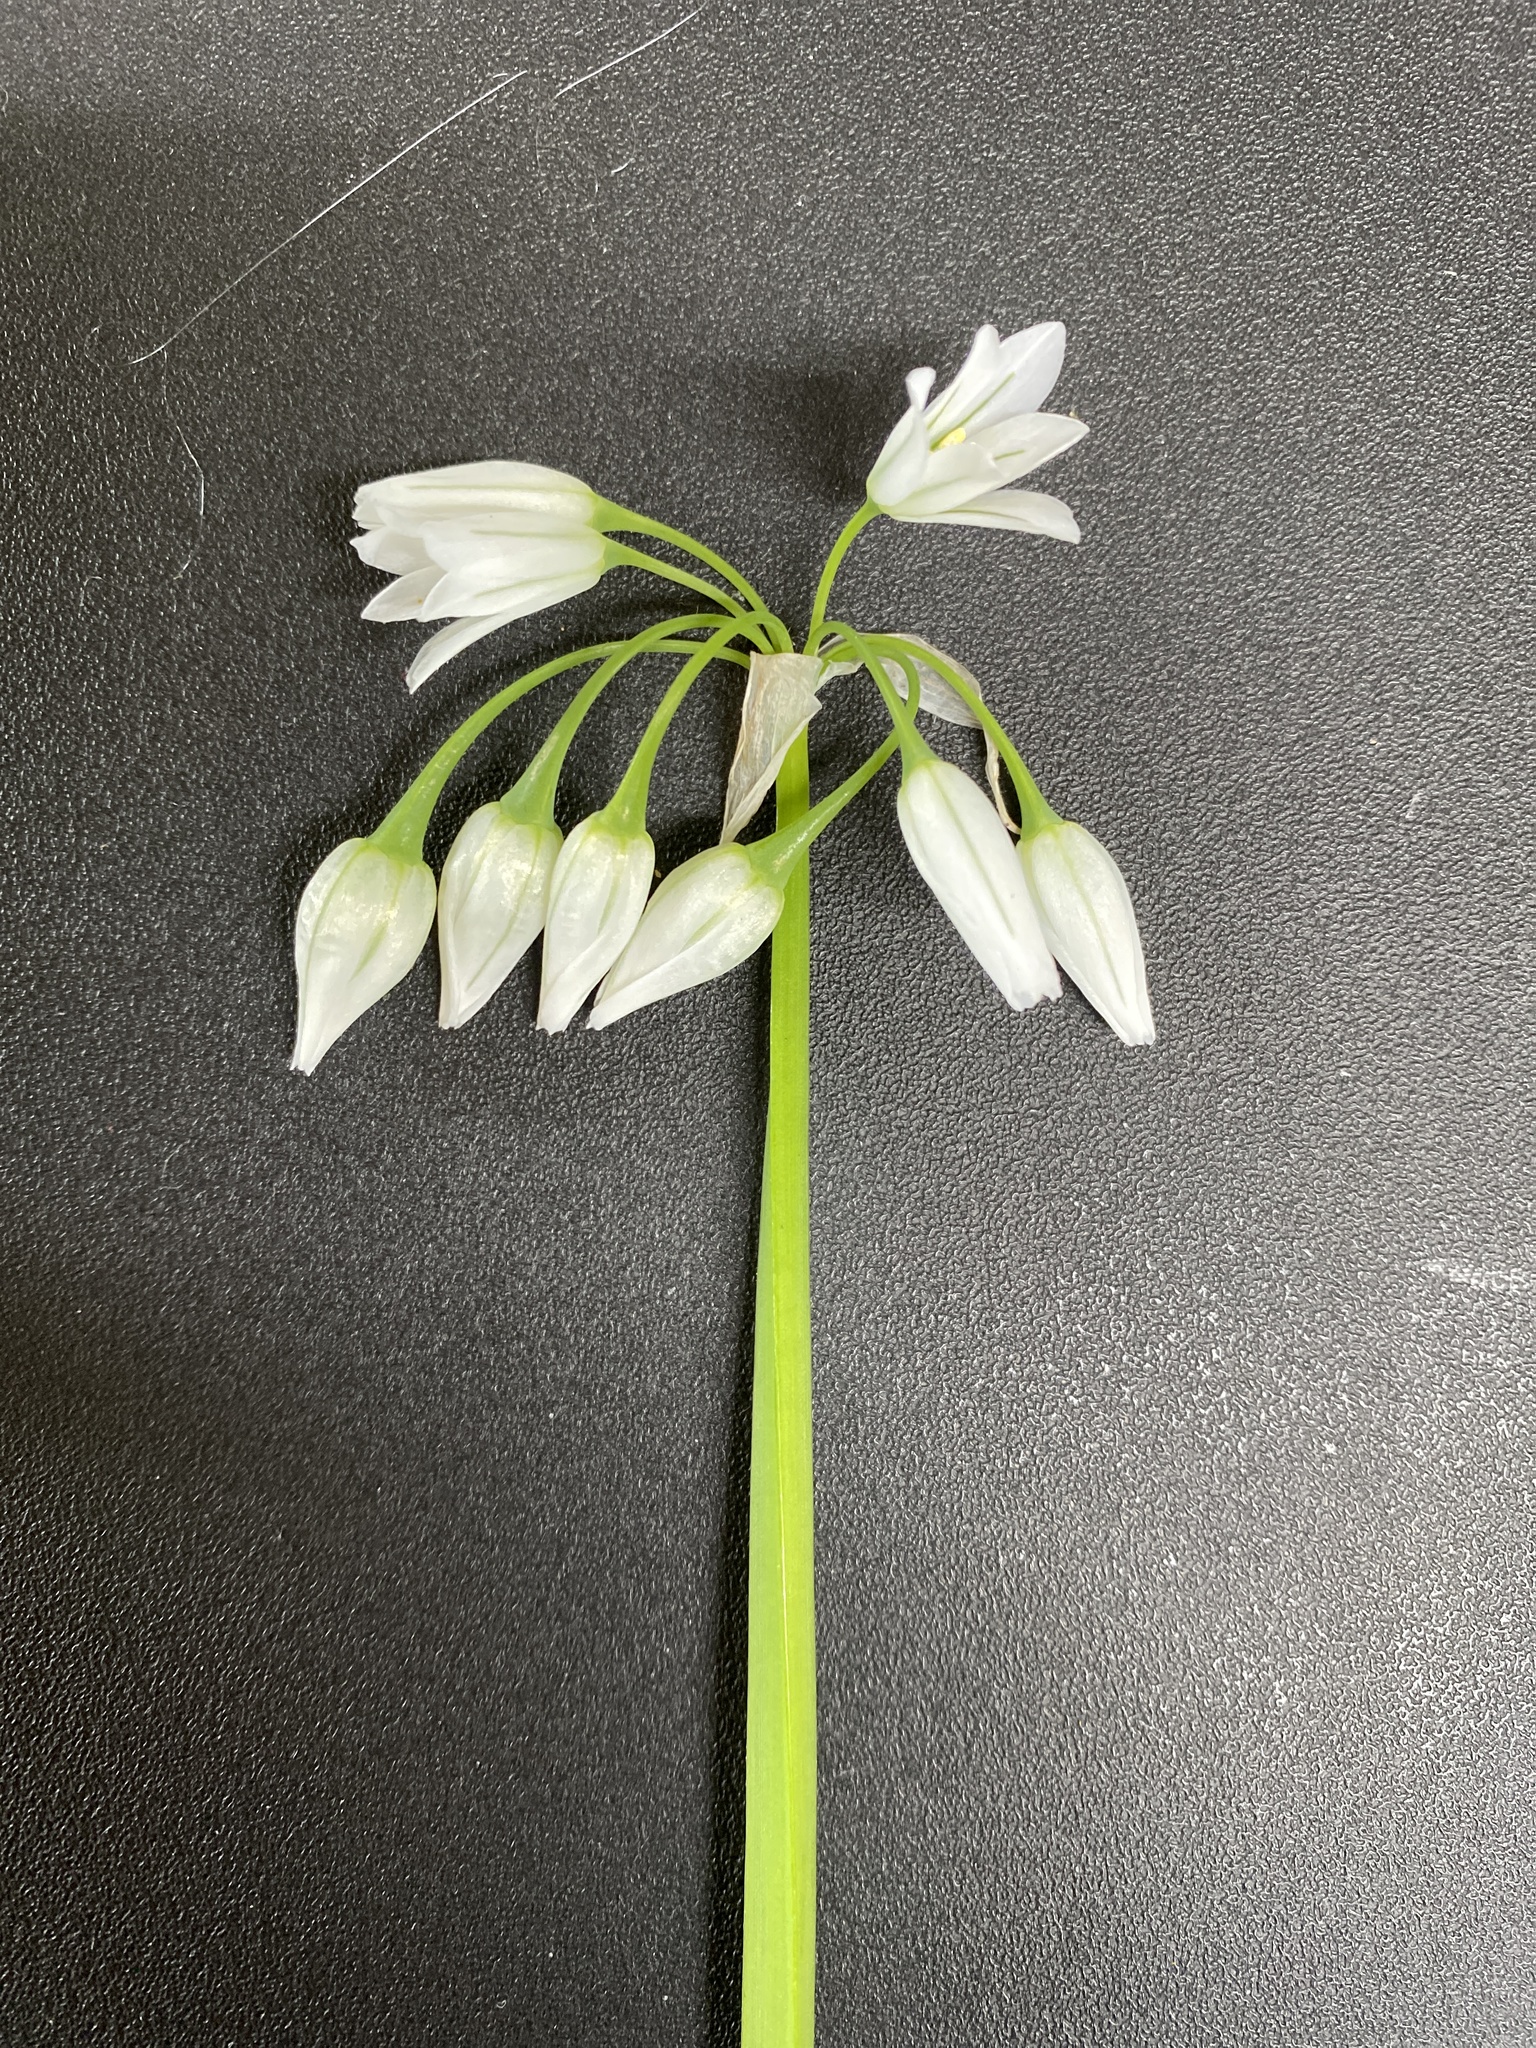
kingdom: Plantae
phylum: Tracheophyta
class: Liliopsida
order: Asparagales
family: Amaryllidaceae
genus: Allium
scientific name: Allium triquetrum
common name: Three-cornered garlic
